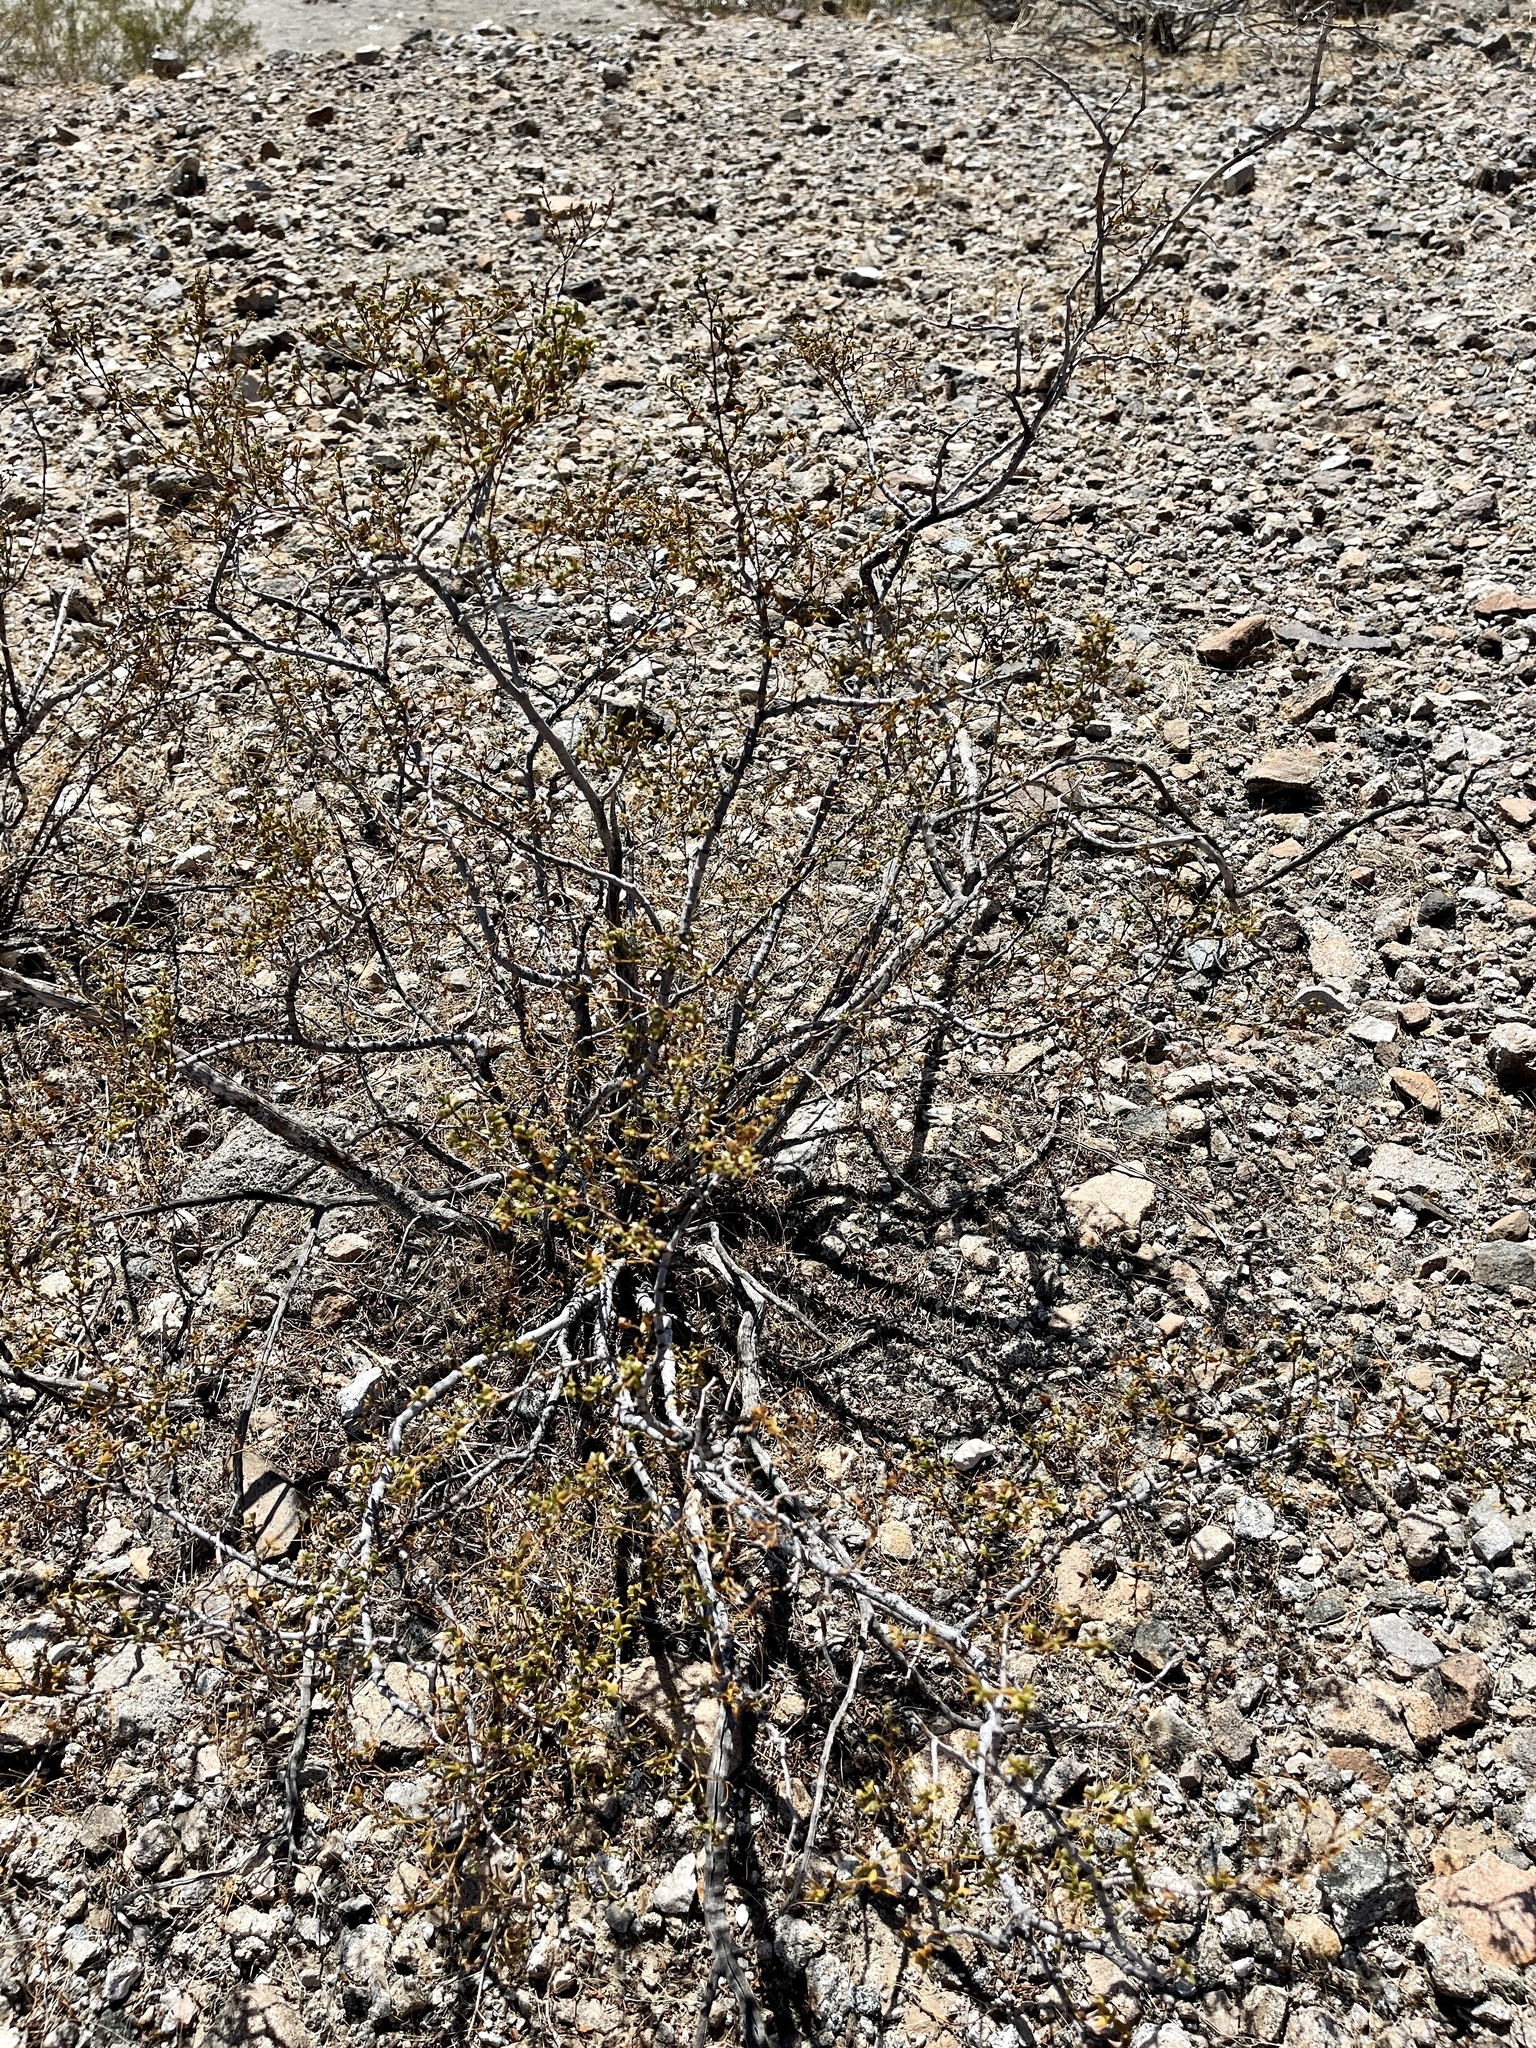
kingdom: Plantae
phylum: Tracheophyta
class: Magnoliopsida
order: Zygophyllales
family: Zygophyllaceae
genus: Larrea
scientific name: Larrea tridentata
